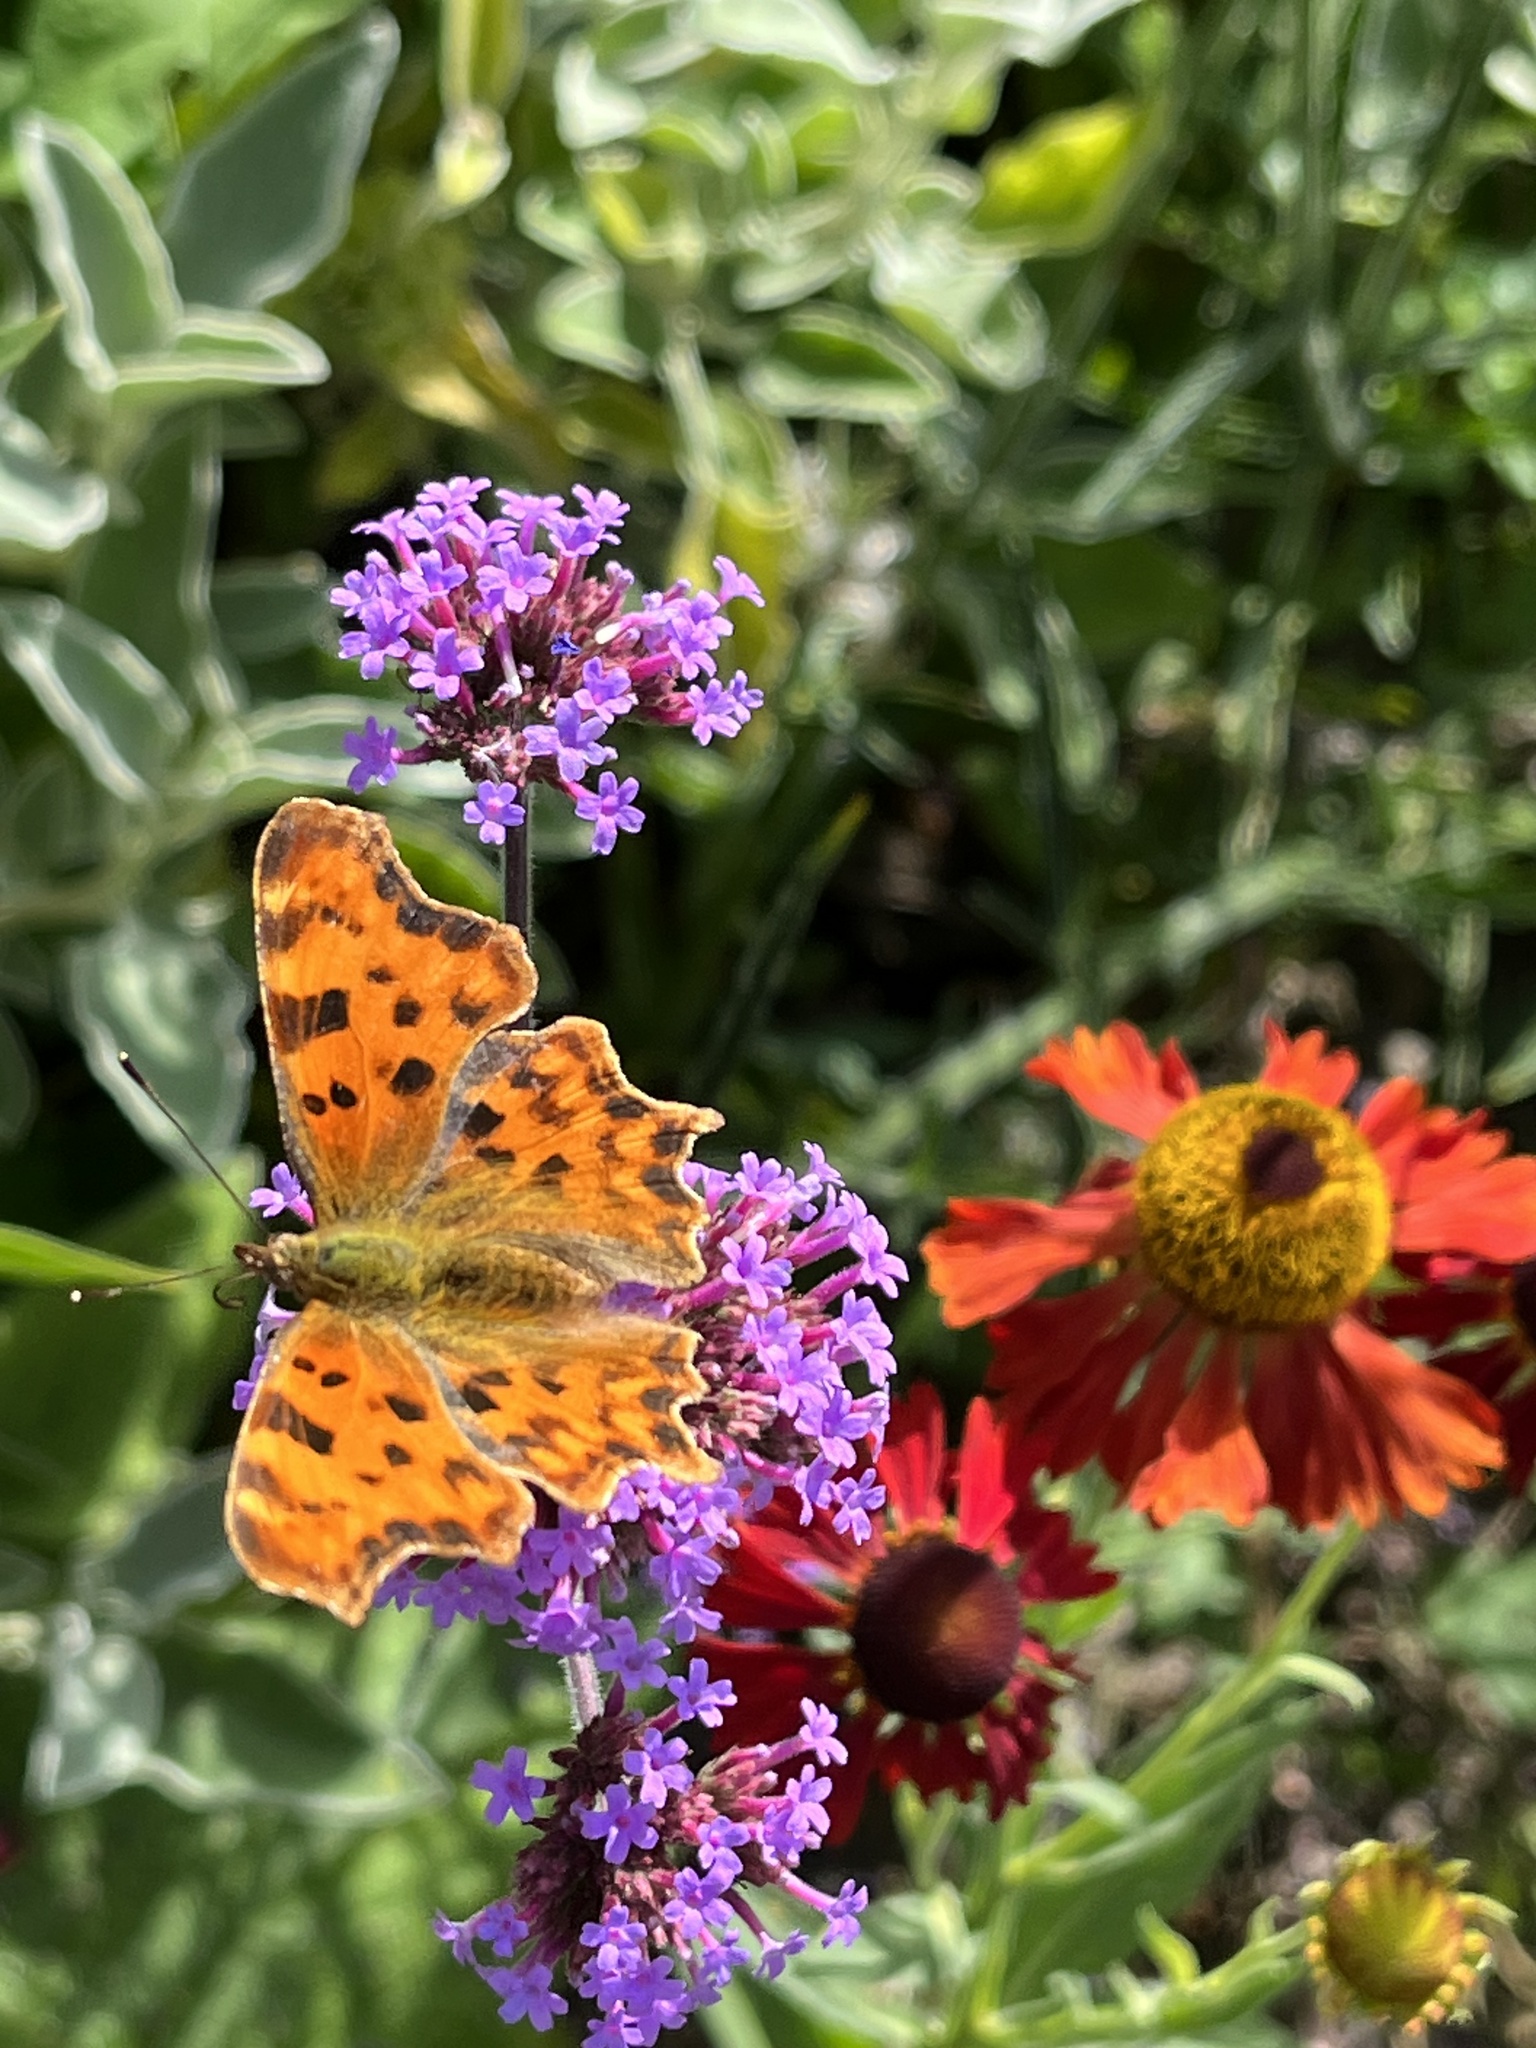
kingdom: Animalia
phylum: Arthropoda
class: Insecta
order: Lepidoptera
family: Nymphalidae
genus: Polygonia
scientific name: Polygonia c-album
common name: Comma
